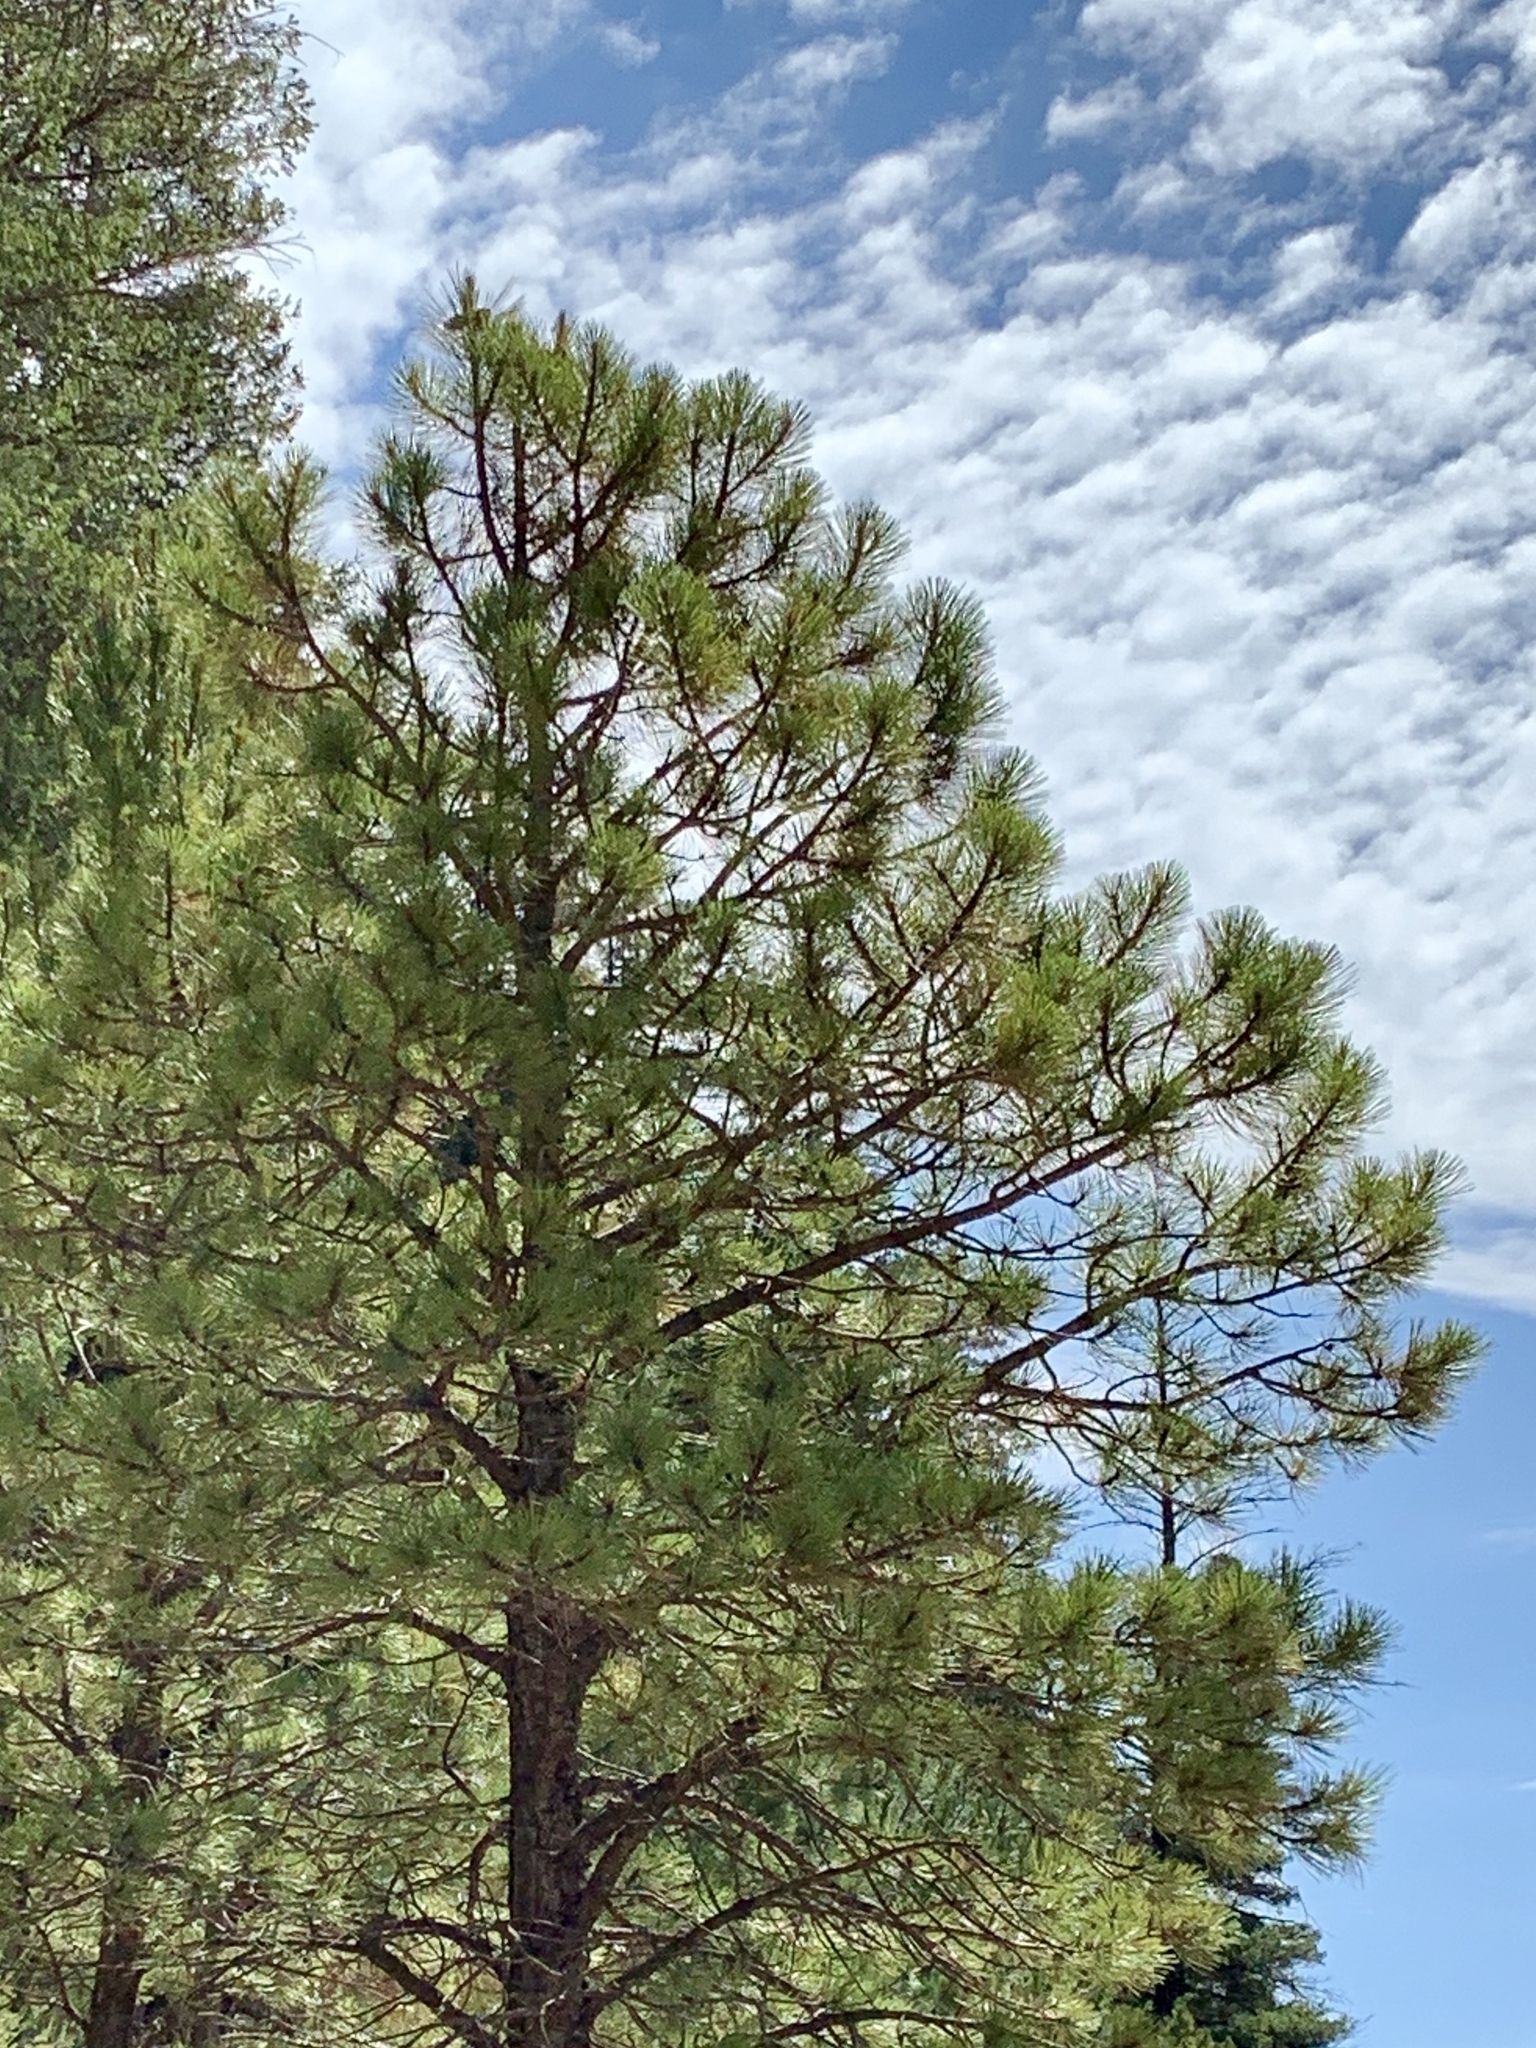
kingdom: Plantae
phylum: Tracheophyta
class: Pinopsida
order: Pinales
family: Pinaceae
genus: Pinus
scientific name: Pinus ponderosa
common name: Western yellow-pine
